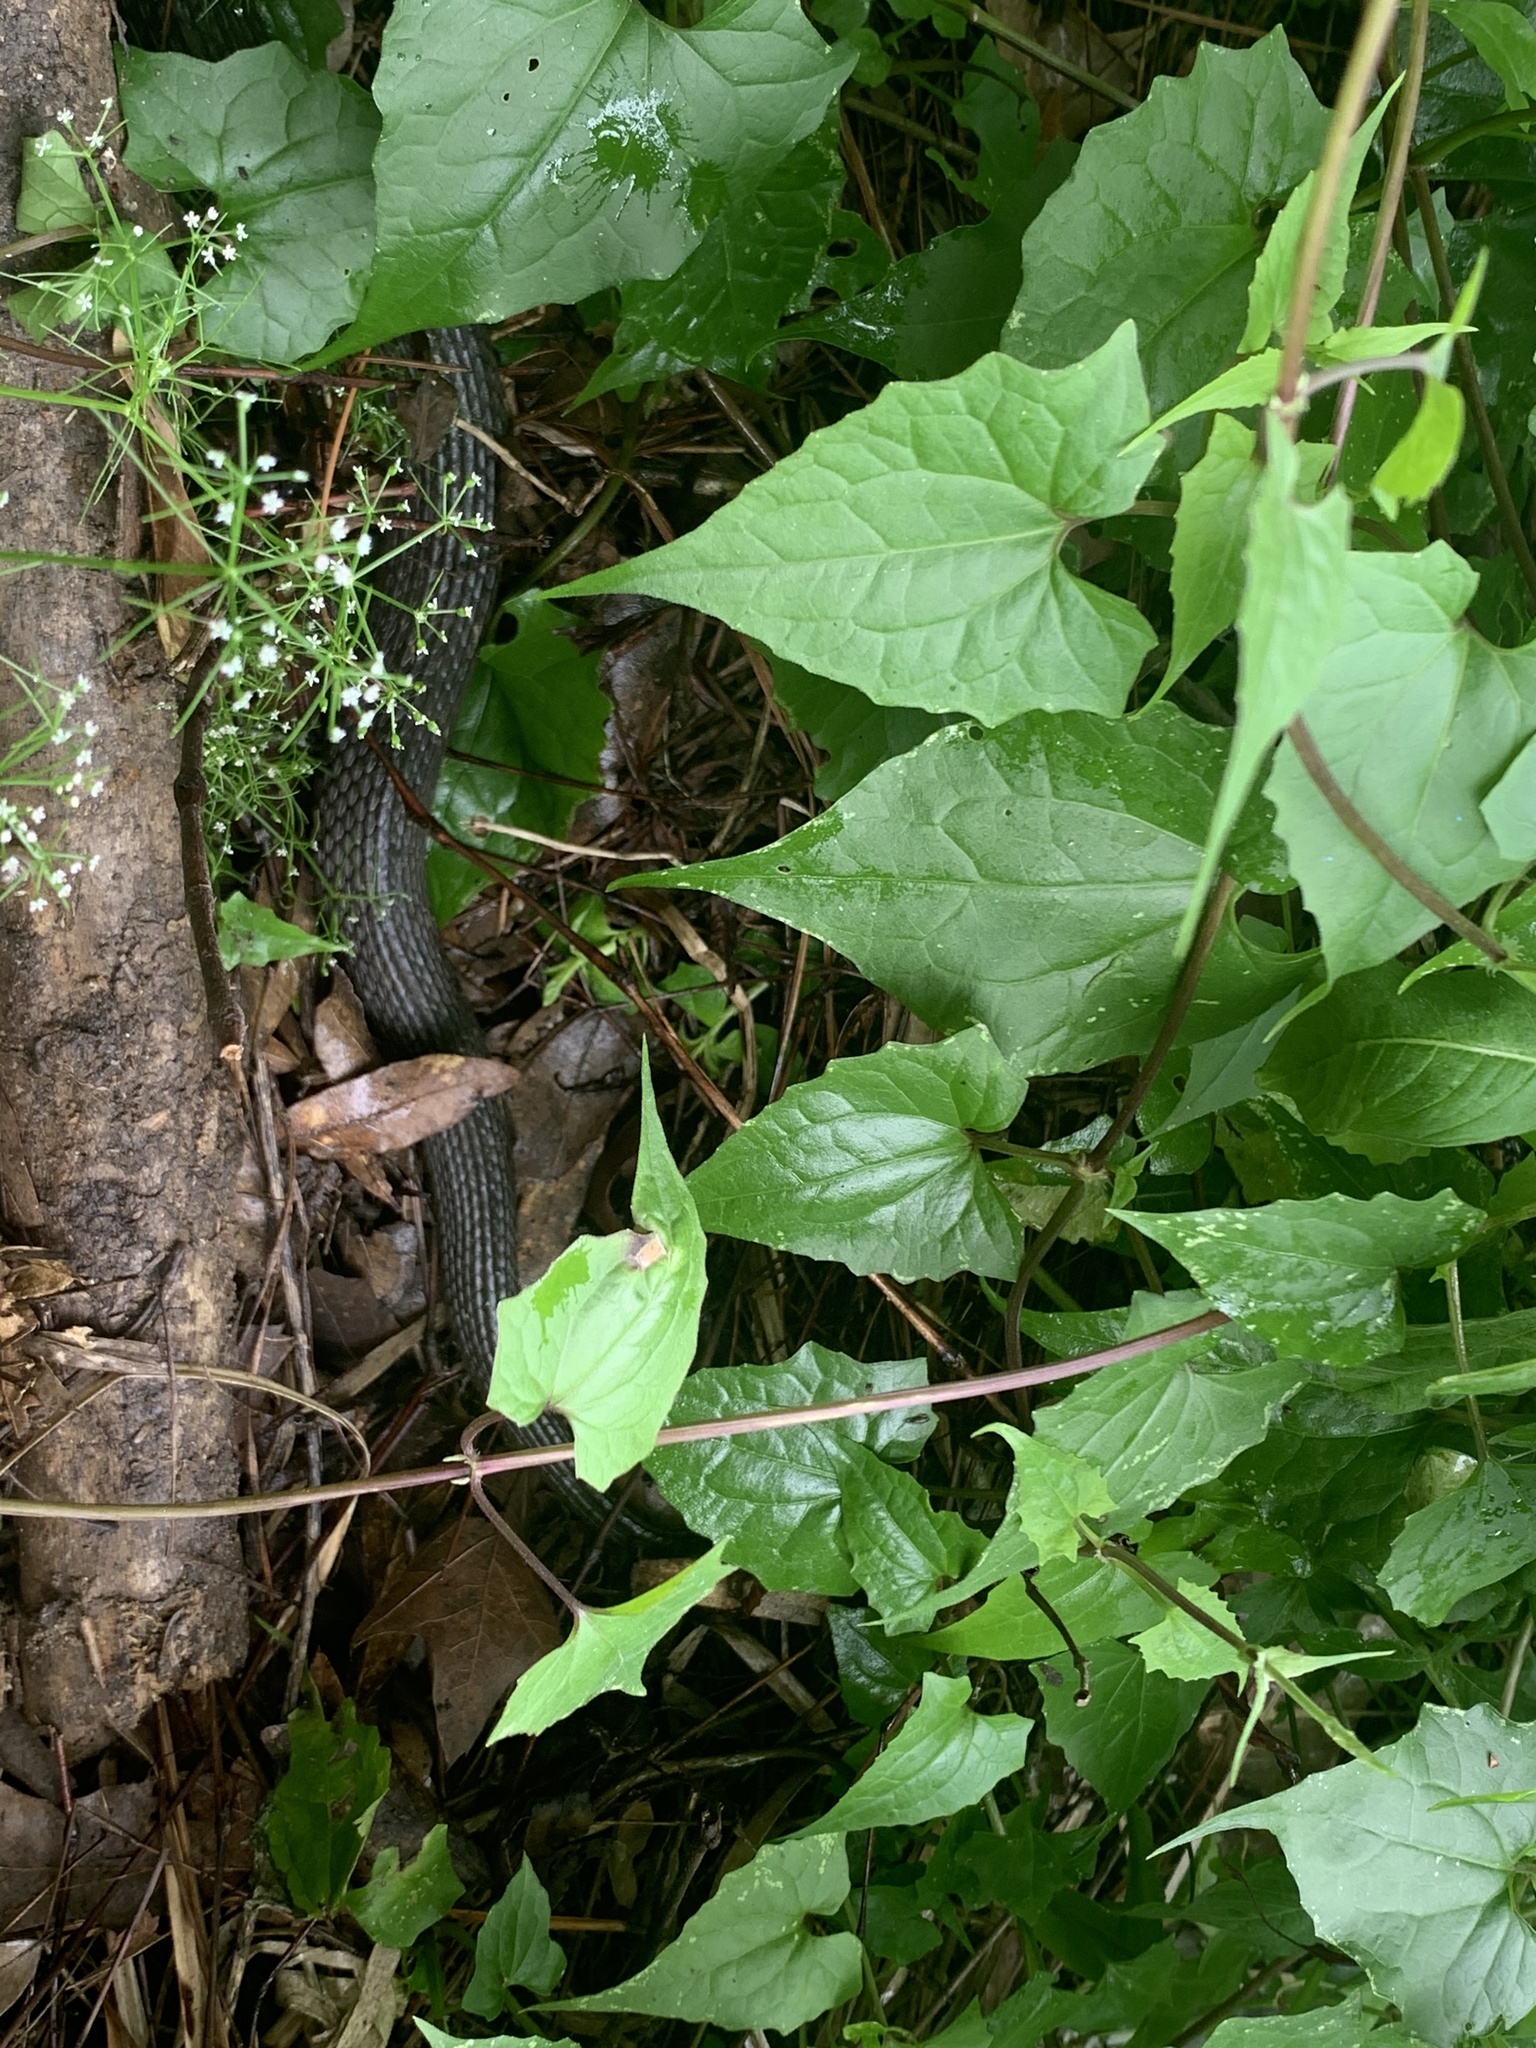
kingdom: Animalia
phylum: Chordata
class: Squamata
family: Colubridae
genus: Nerodia
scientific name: Nerodia erythrogaster
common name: Plainbelly water snake
